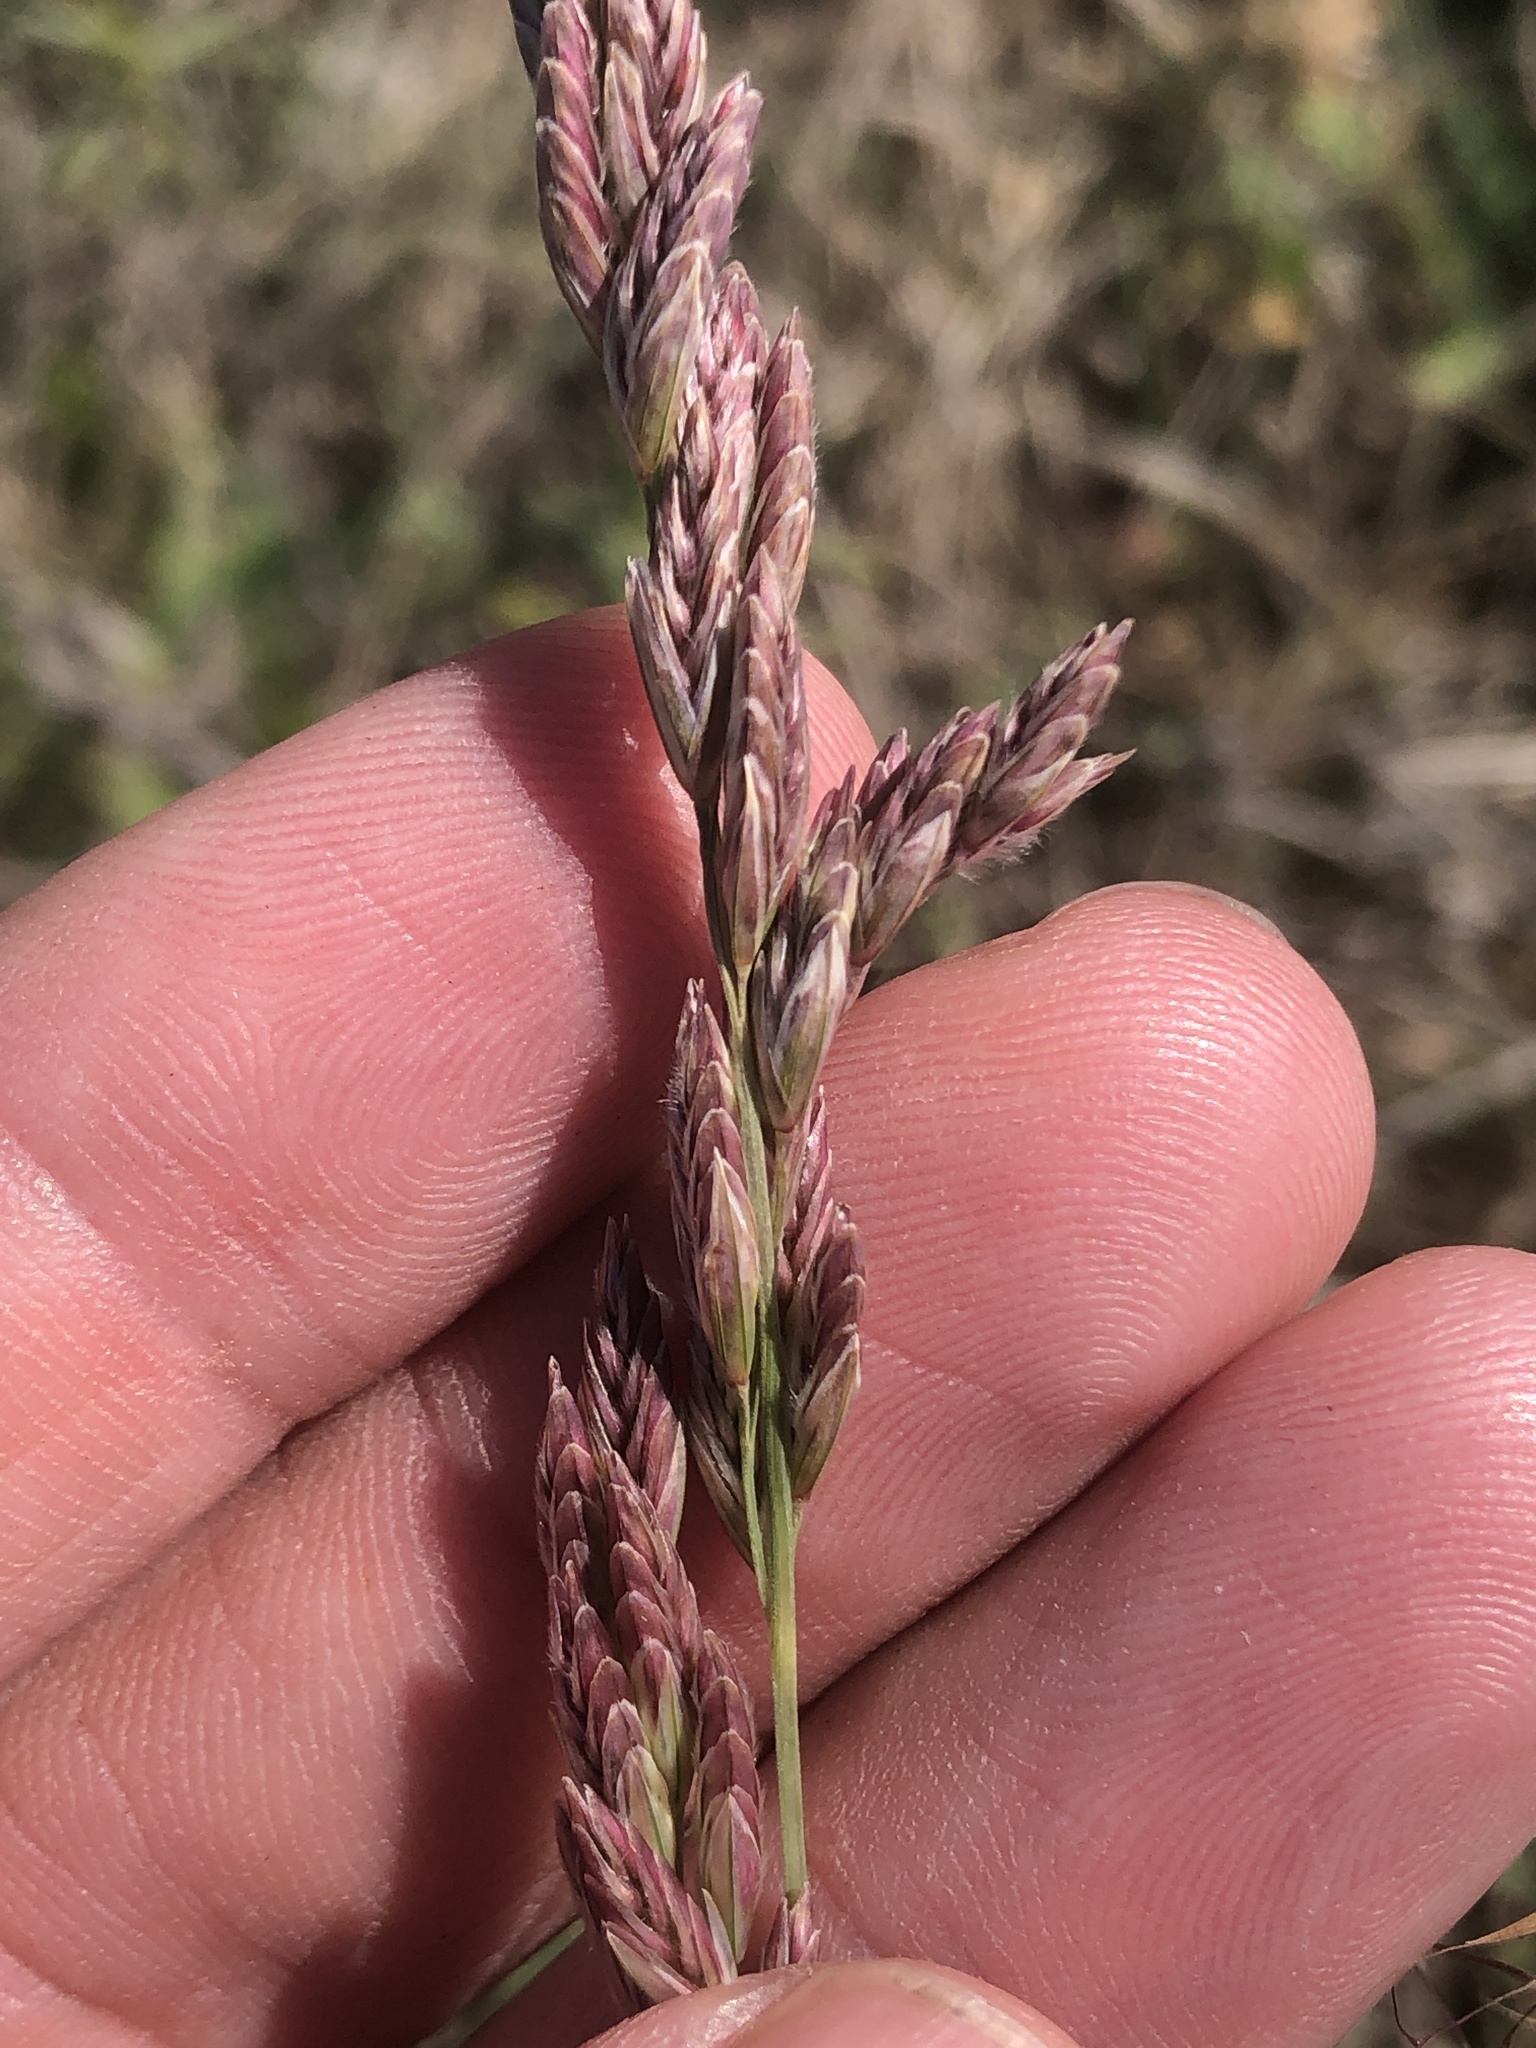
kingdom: Plantae
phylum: Tracheophyta
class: Liliopsida
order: Poales
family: Poaceae
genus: Trisetopsis
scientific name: Trisetopsis elongata
